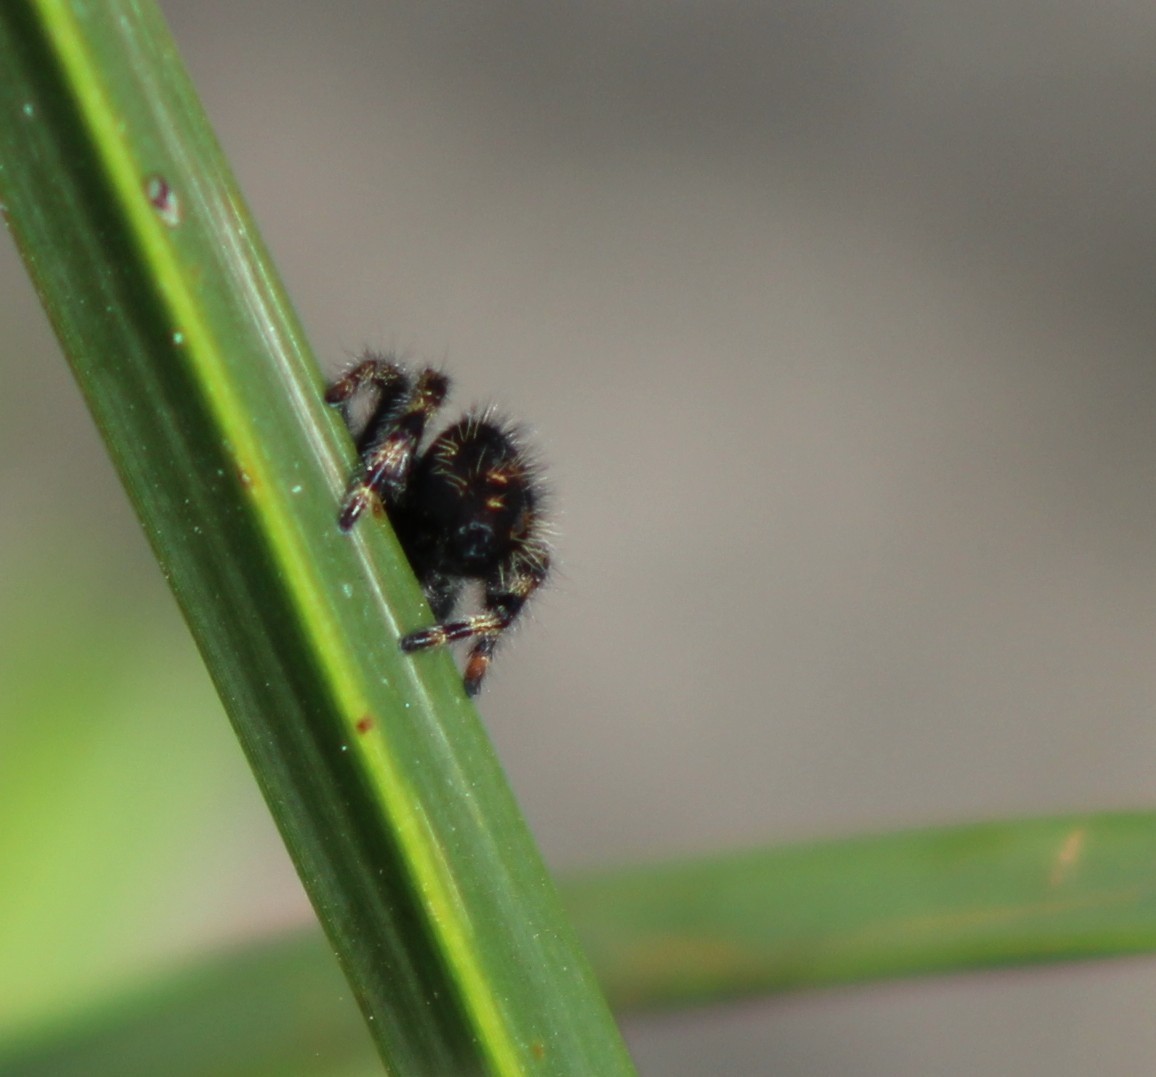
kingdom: Animalia
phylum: Arthropoda
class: Arachnida
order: Araneae
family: Salticidae
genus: Phidippus
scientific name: Phidippus audax
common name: Bold jumper
